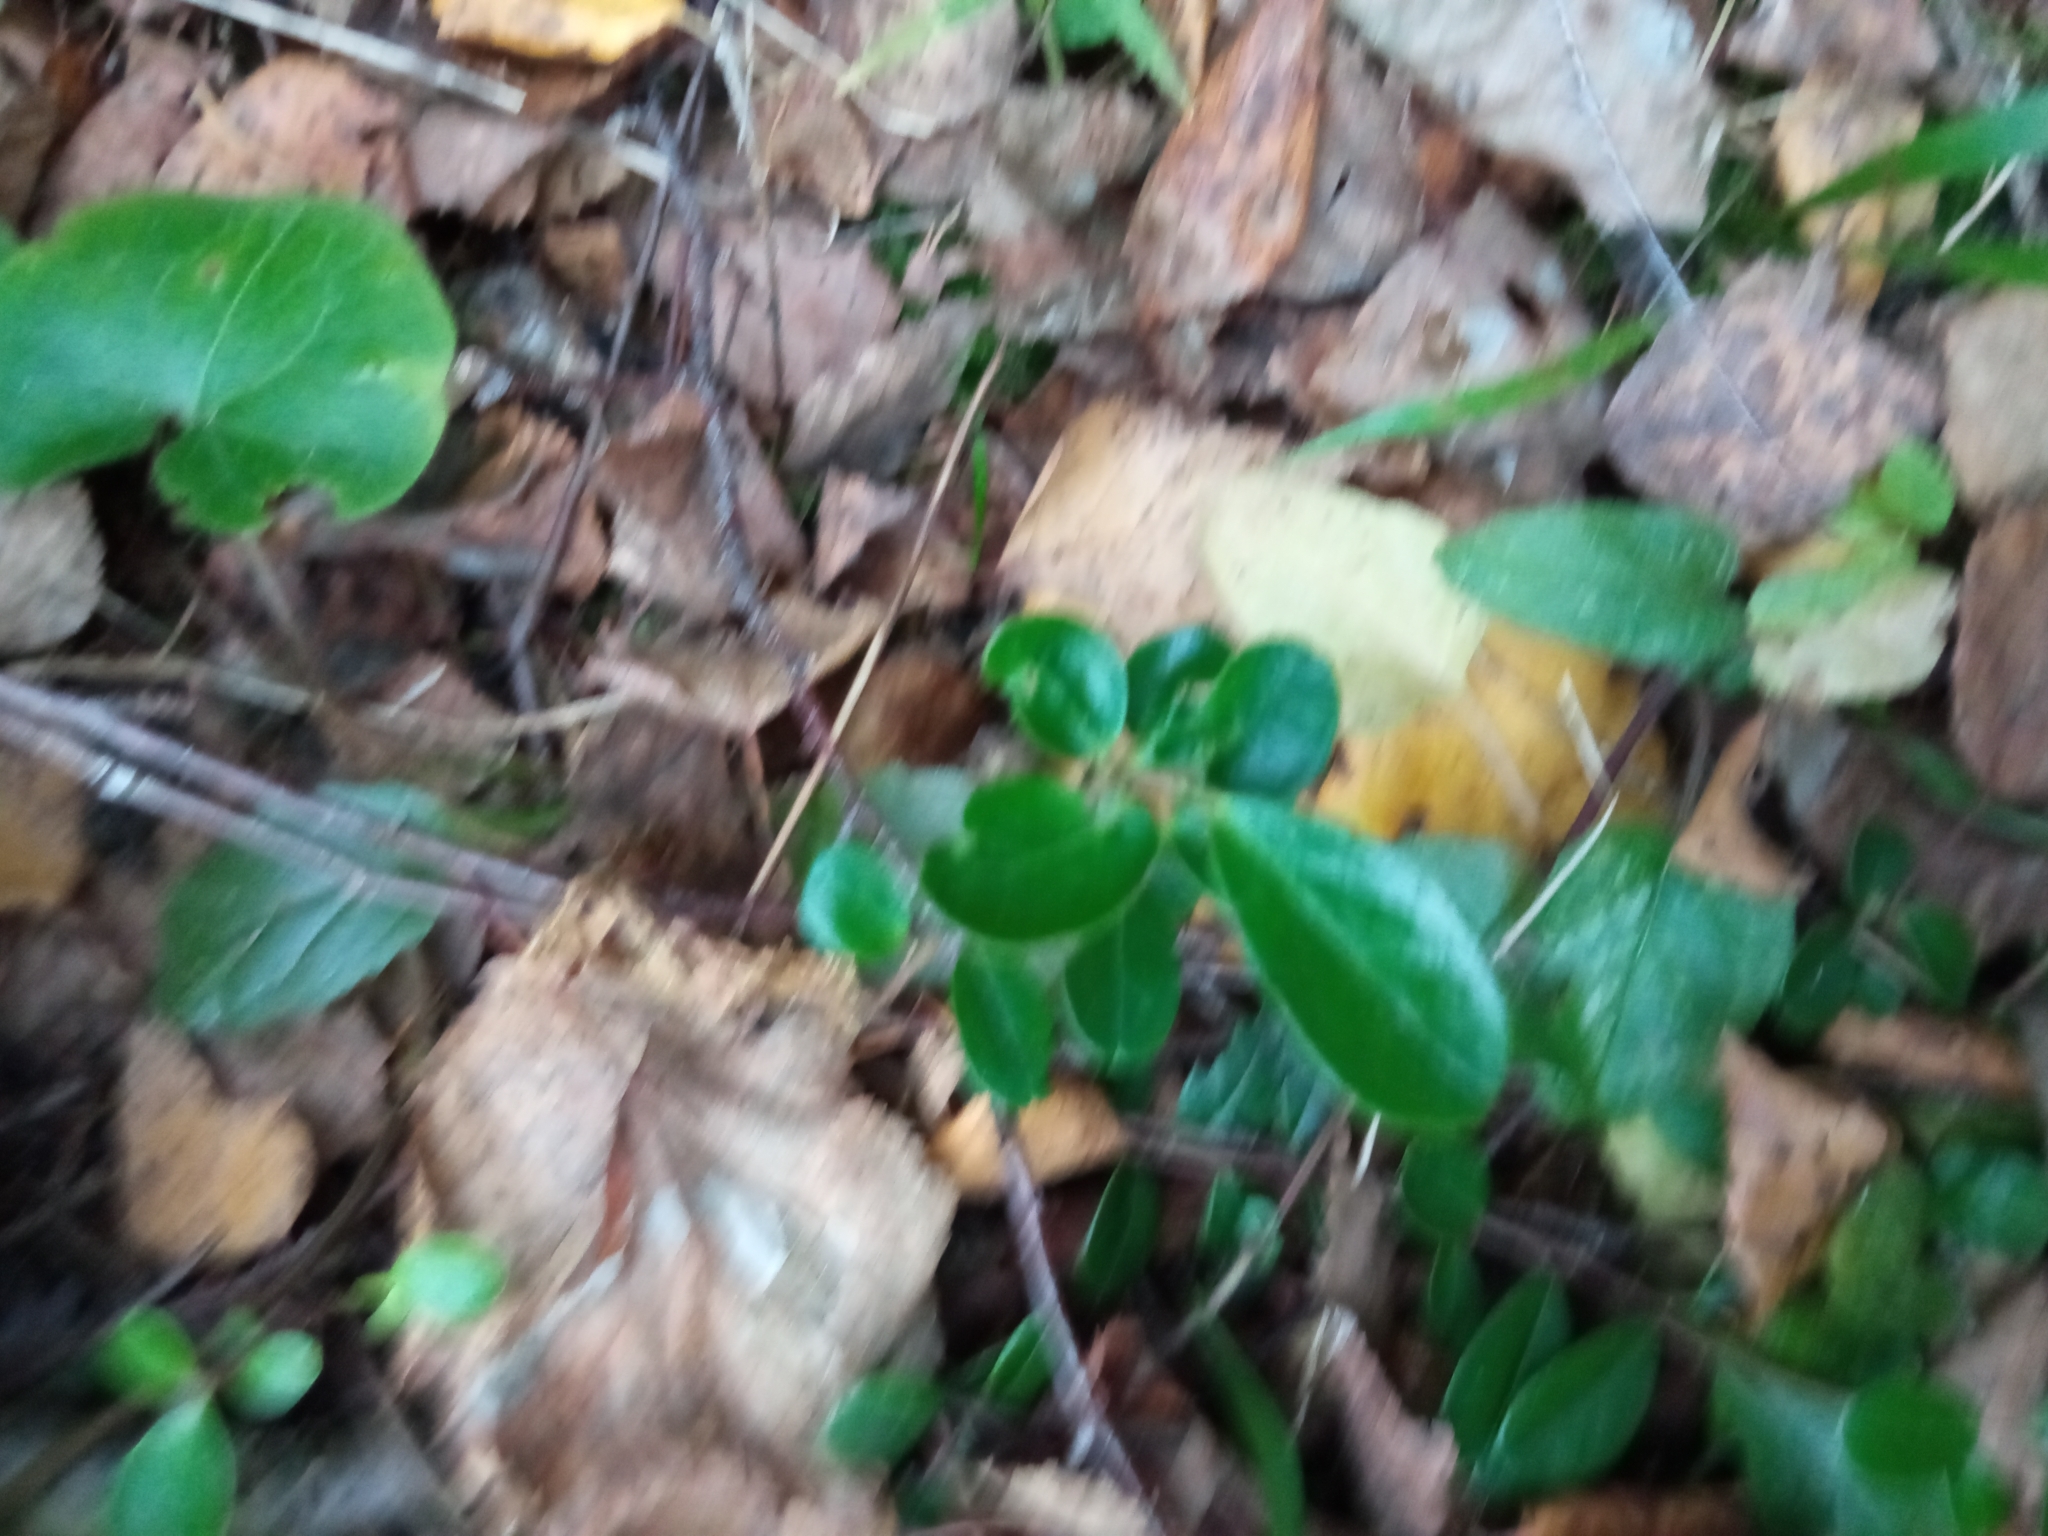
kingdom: Plantae
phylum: Tracheophyta
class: Magnoliopsida
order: Ericales
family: Ericaceae
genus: Vaccinium
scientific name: Vaccinium vitis-idaea
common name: Cowberry
